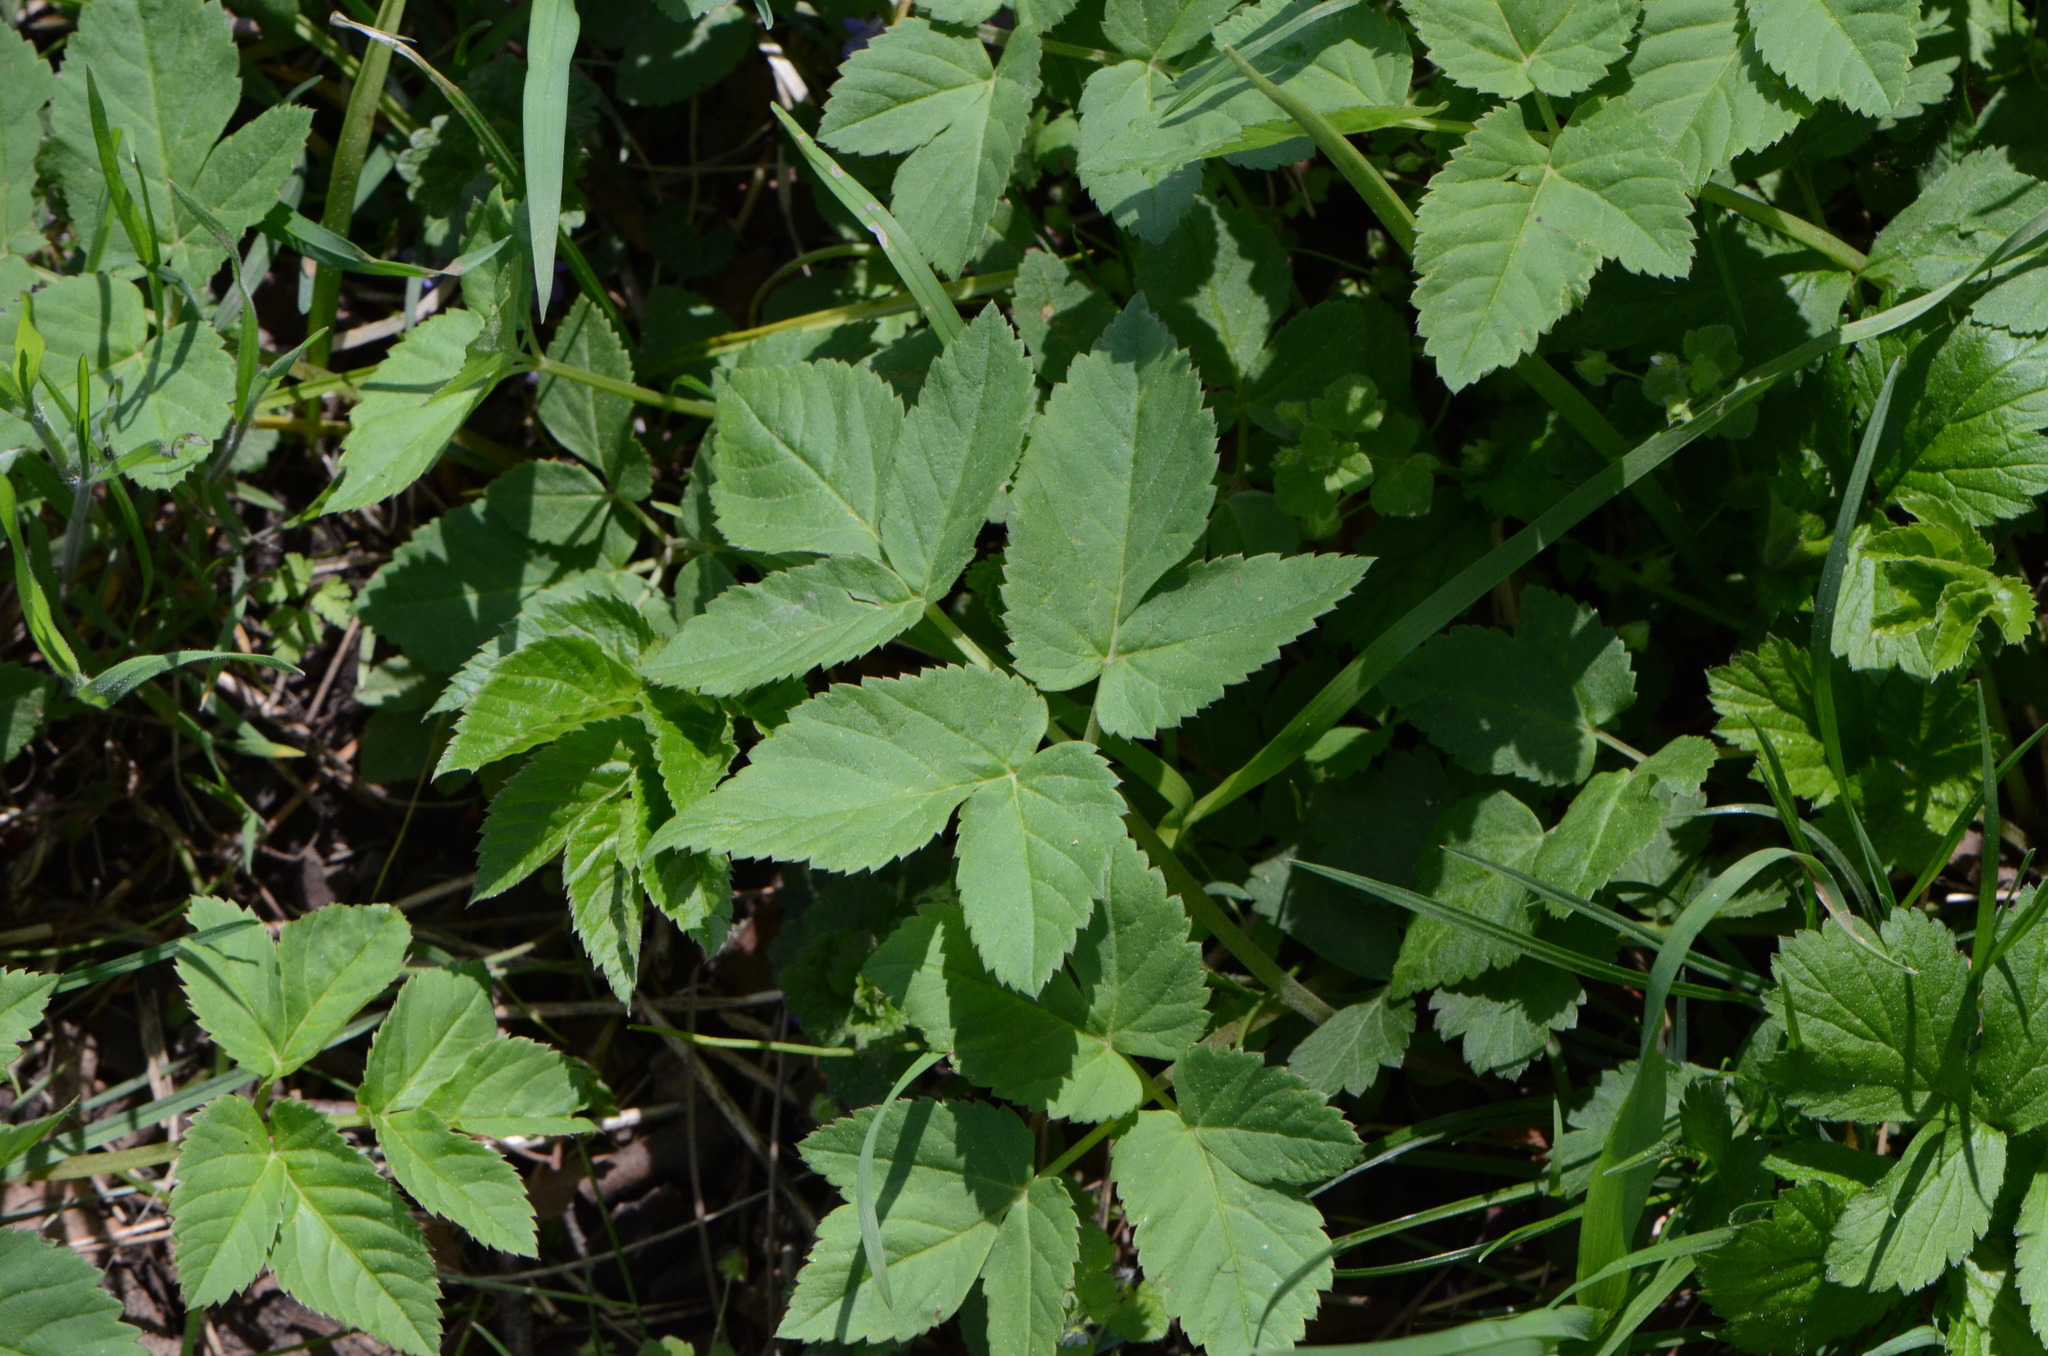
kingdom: Plantae
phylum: Tracheophyta
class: Magnoliopsida
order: Apiales
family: Apiaceae
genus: Aegopodium
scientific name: Aegopodium podagraria
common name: Ground-elder
